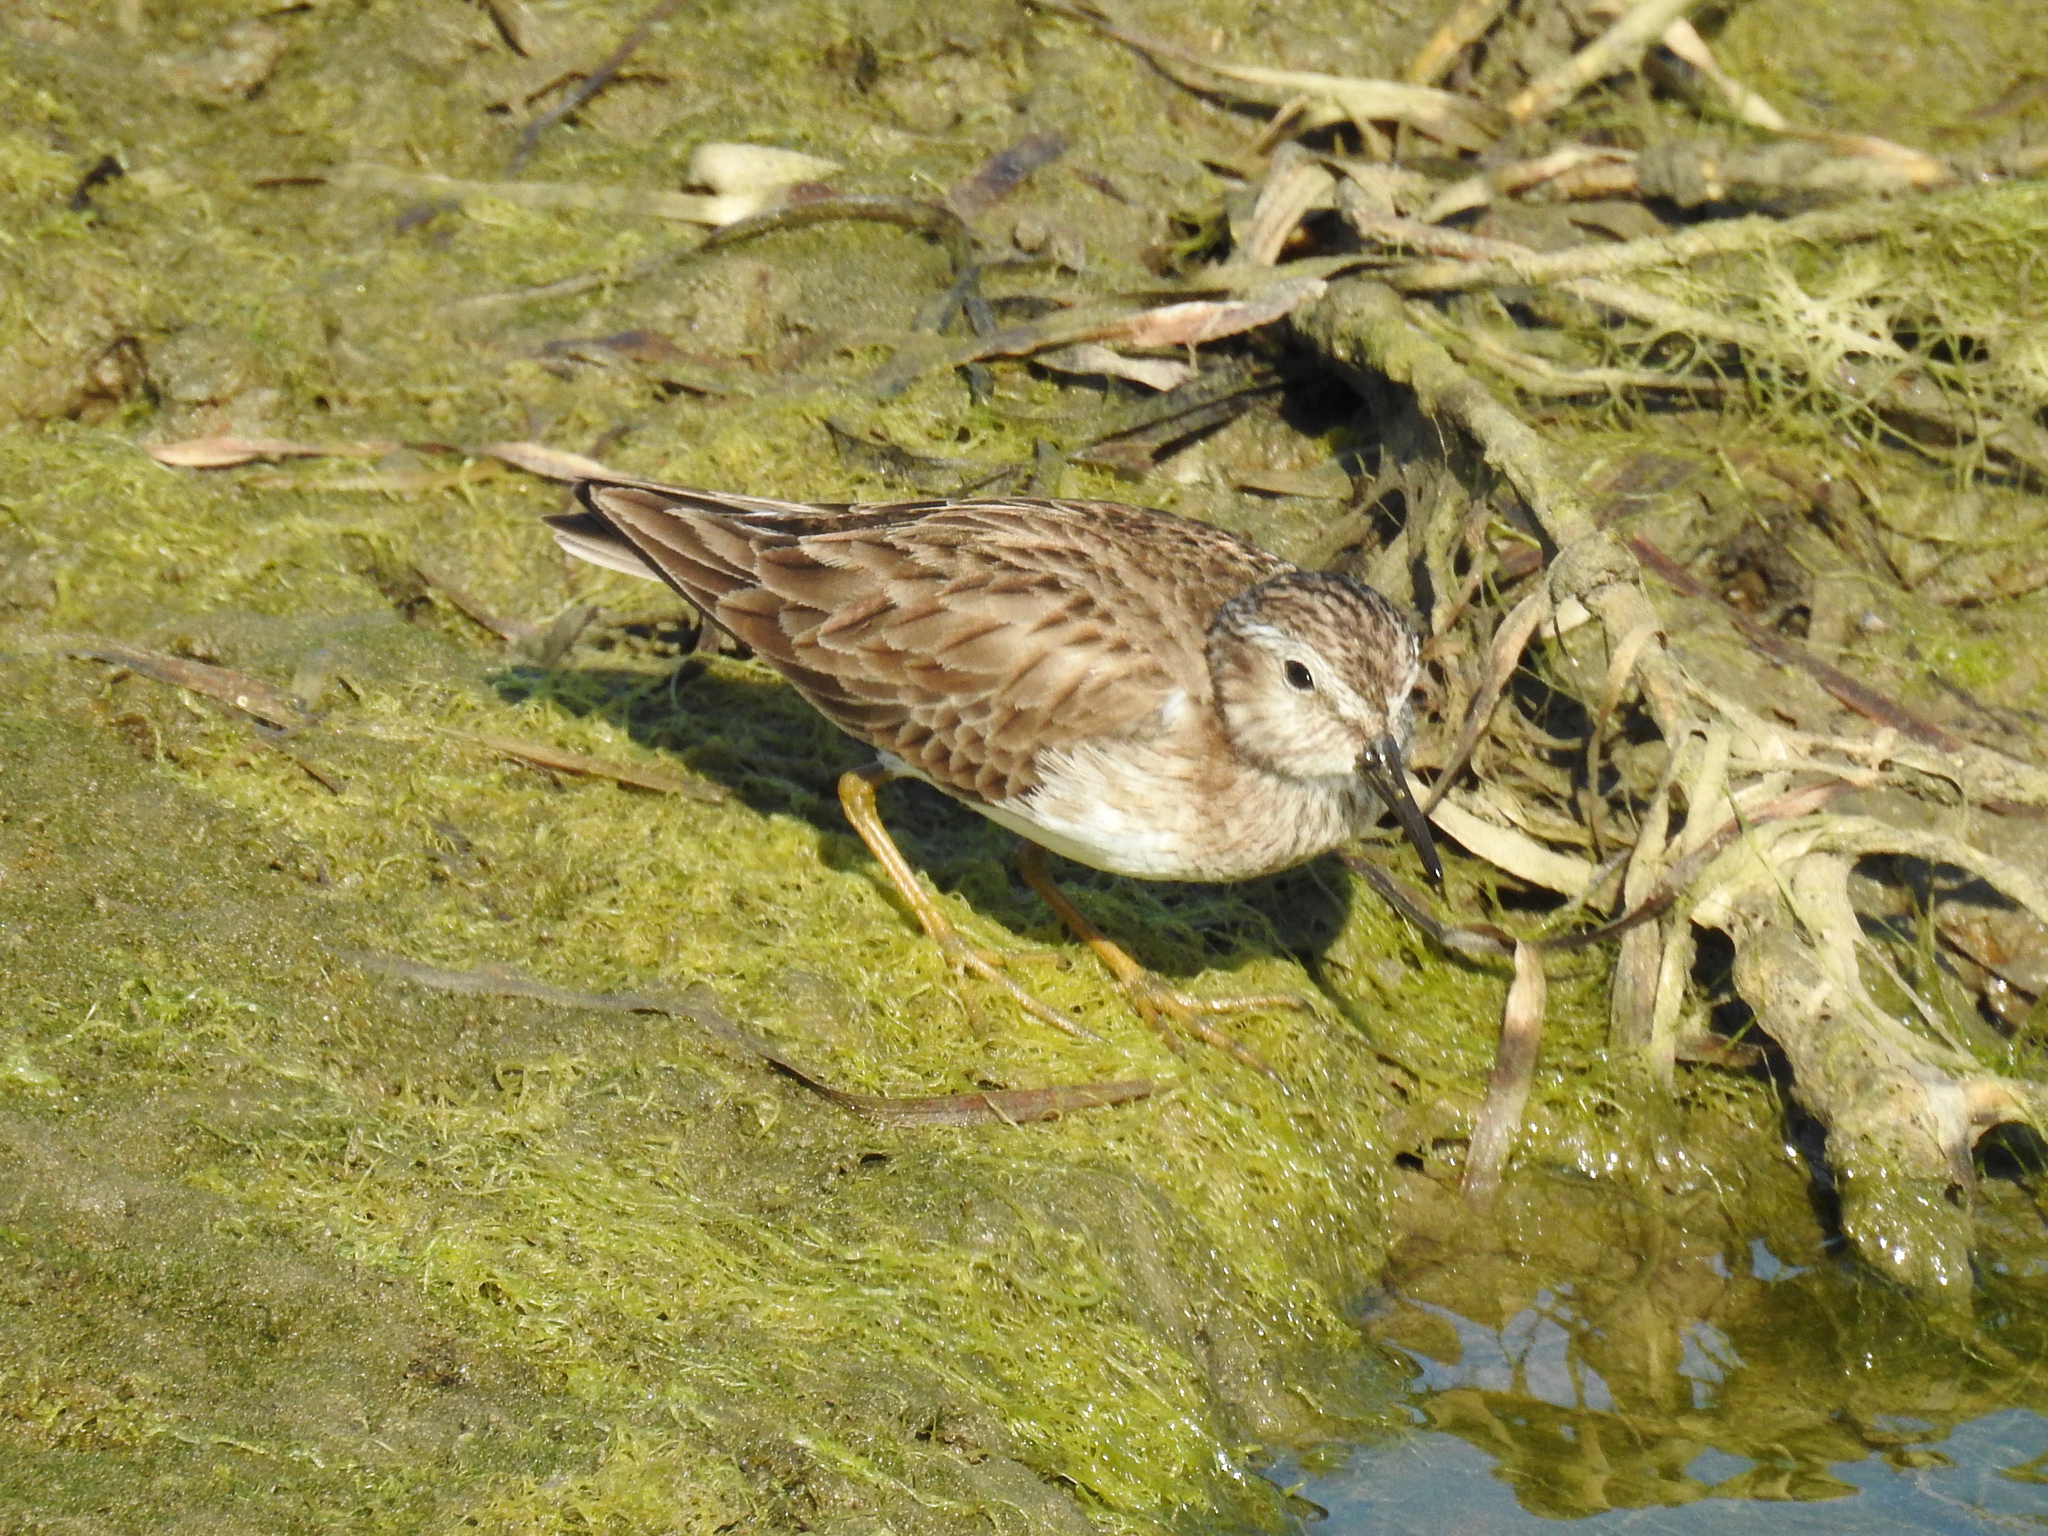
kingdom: Animalia
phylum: Chordata
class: Aves
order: Charadriiformes
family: Scolopacidae
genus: Calidris
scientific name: Calidris minutilla
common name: Least sandpiper
